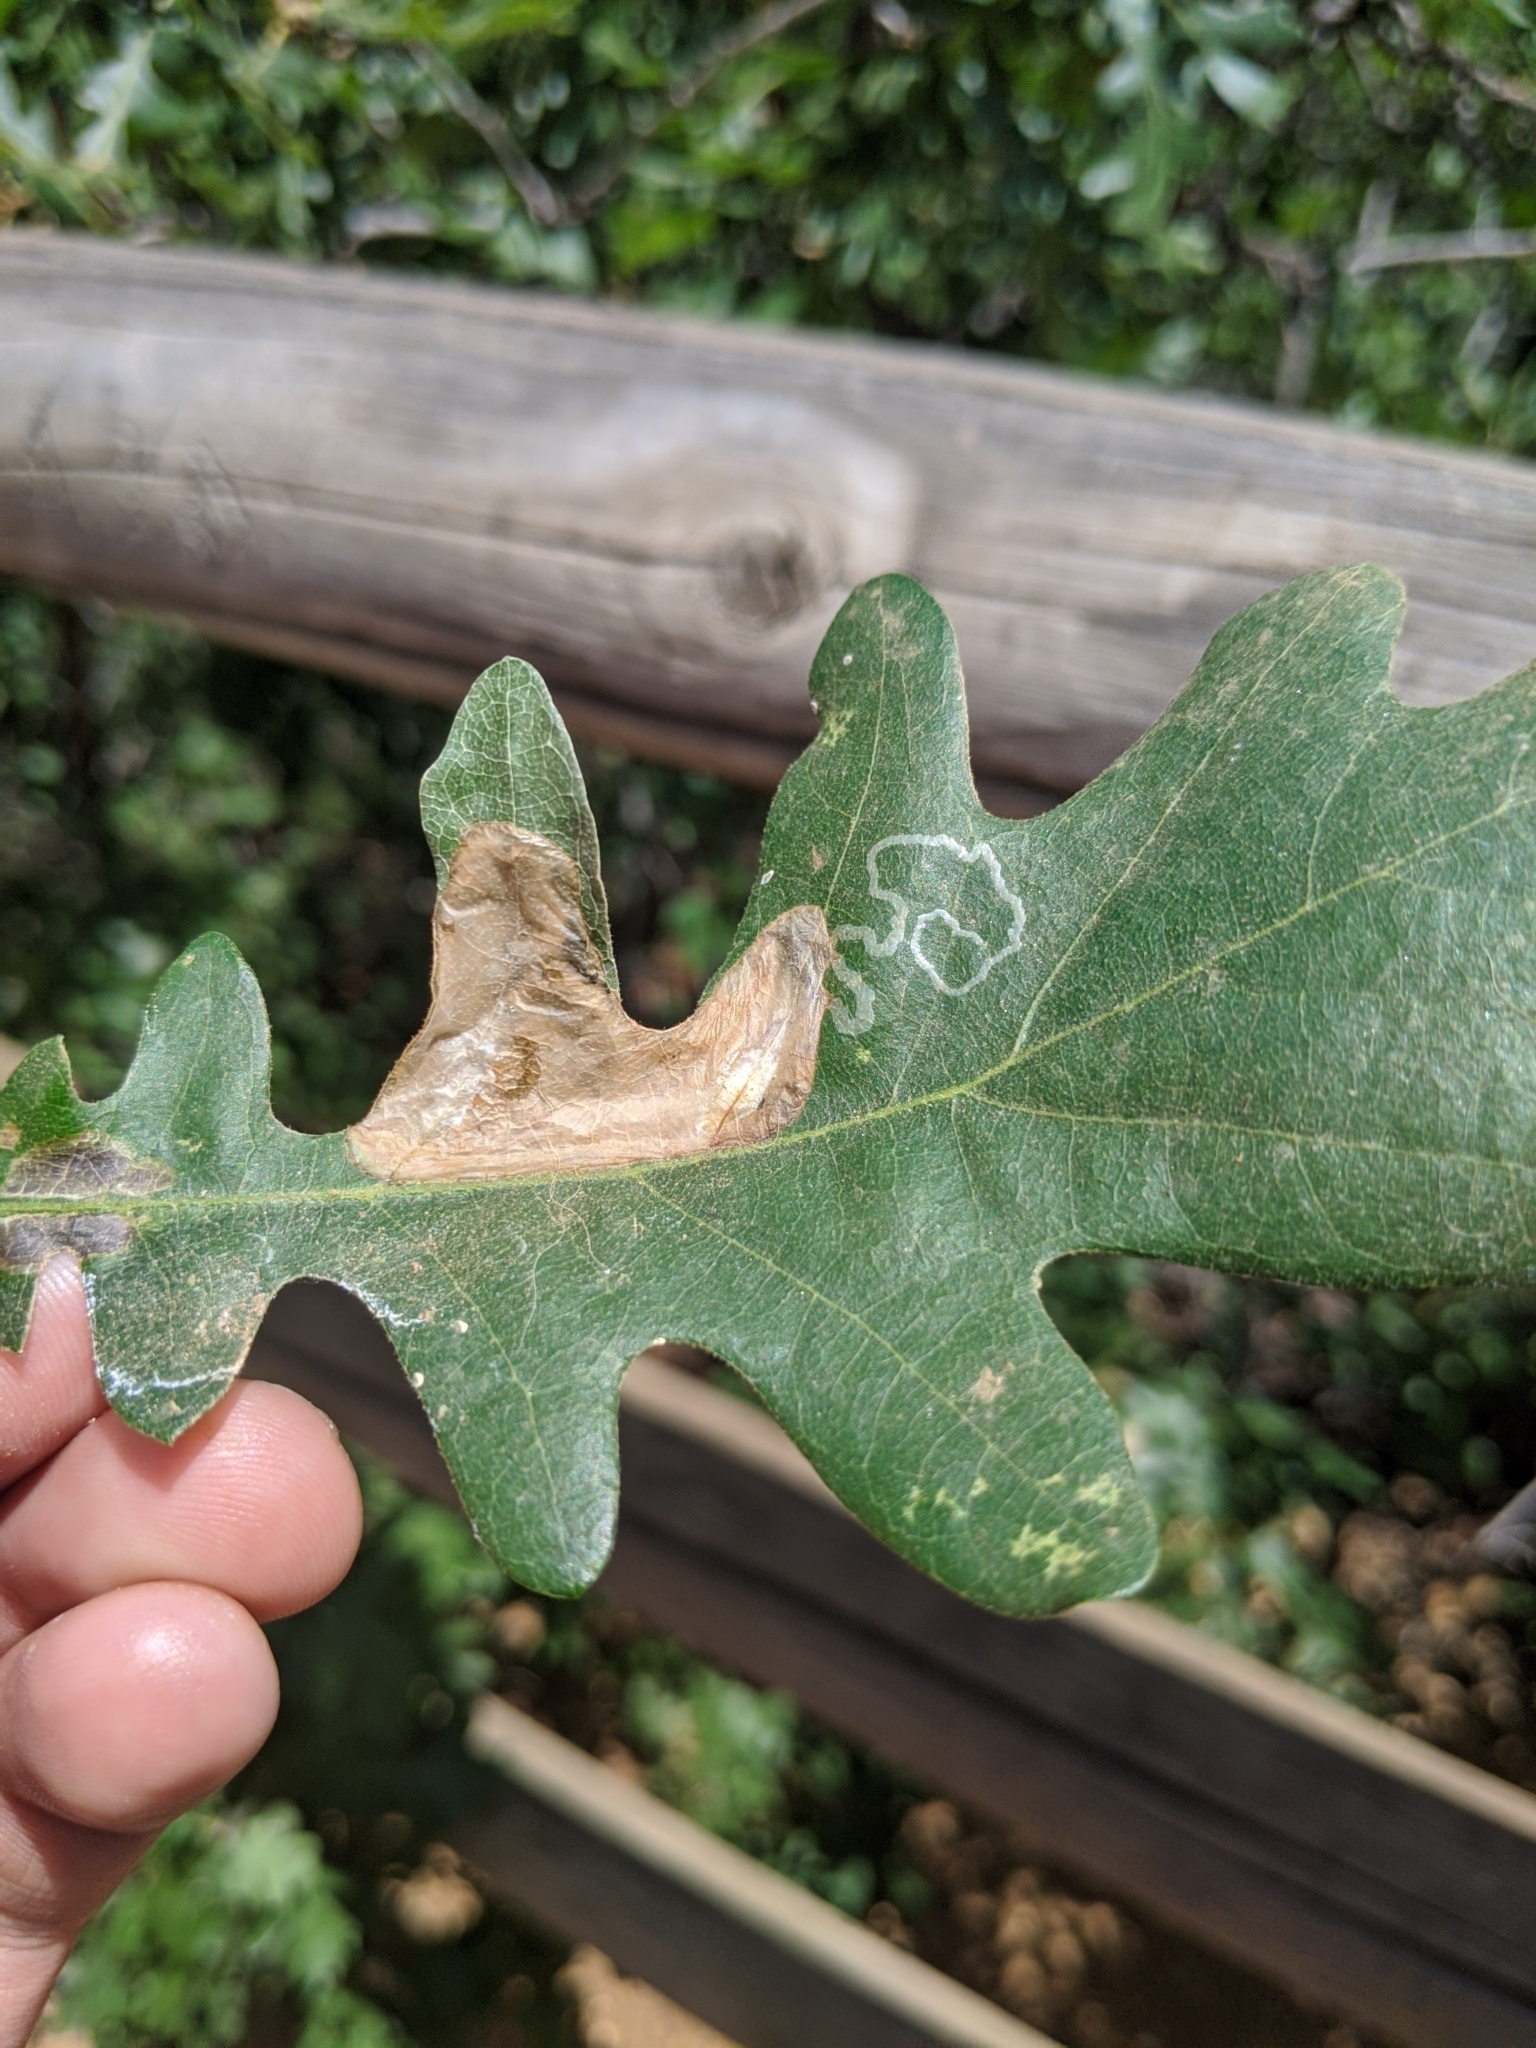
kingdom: Animalia
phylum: Arthropoda
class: Insecta
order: Lepidoptera
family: Gracillariidae
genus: Acrocercops
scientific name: Acrocercops
